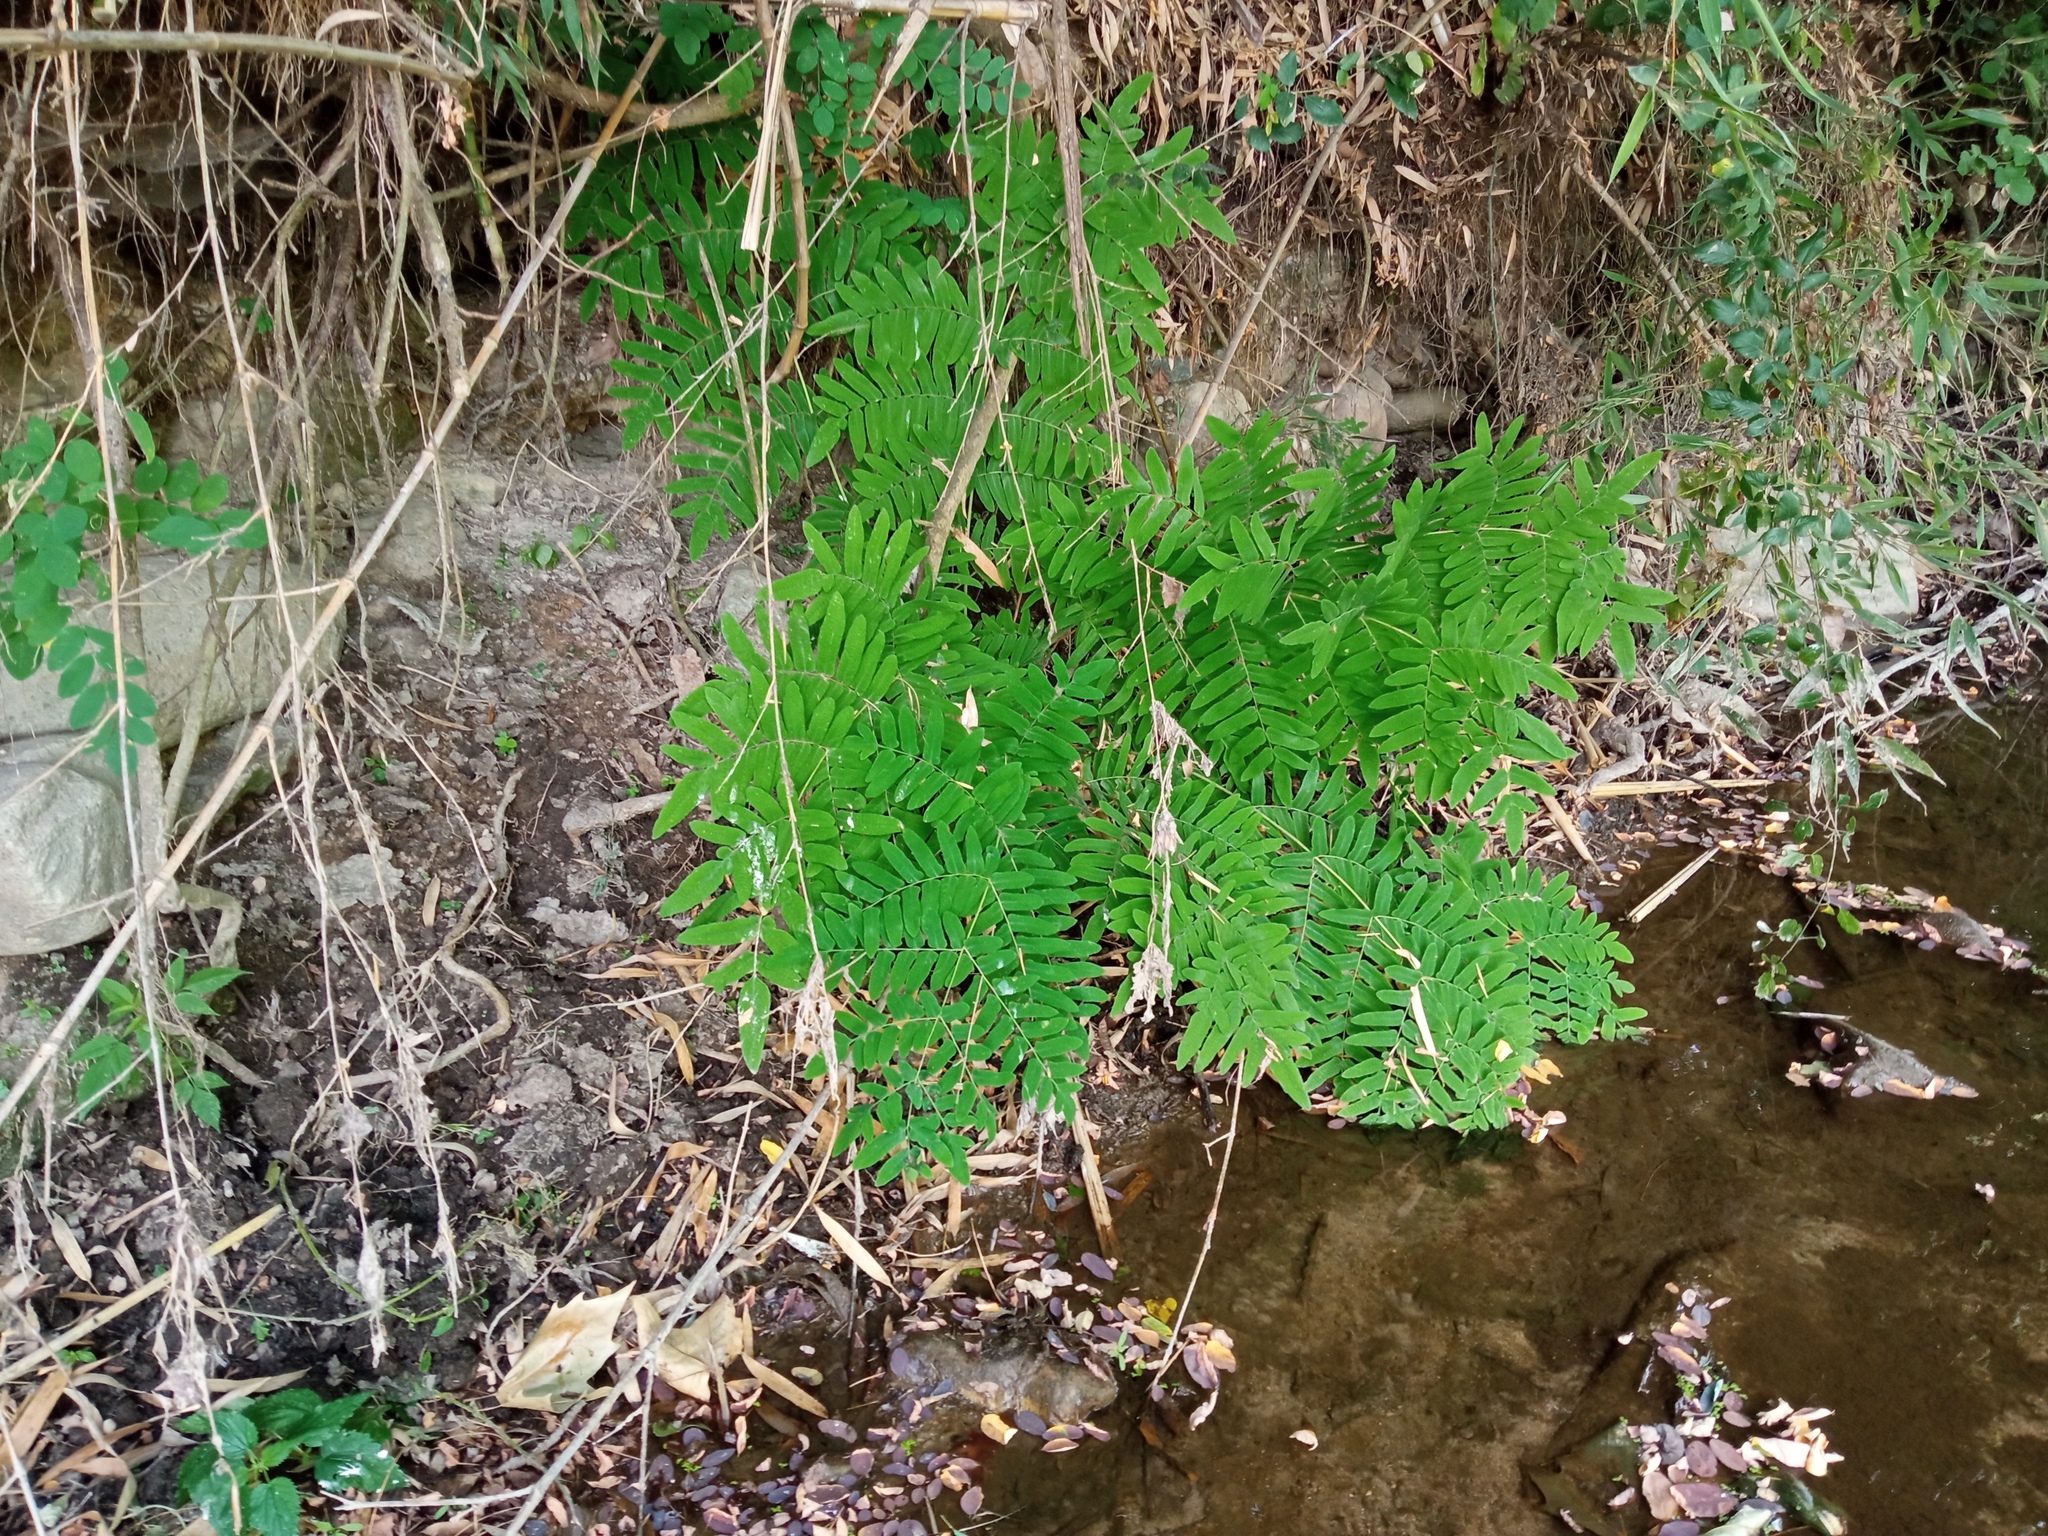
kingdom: Plantae
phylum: Tracheophyta
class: Polypodiopsida
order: Osmundales
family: Osmundaceae
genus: Osmunda
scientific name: Osmunda regalis
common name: Royal fern
